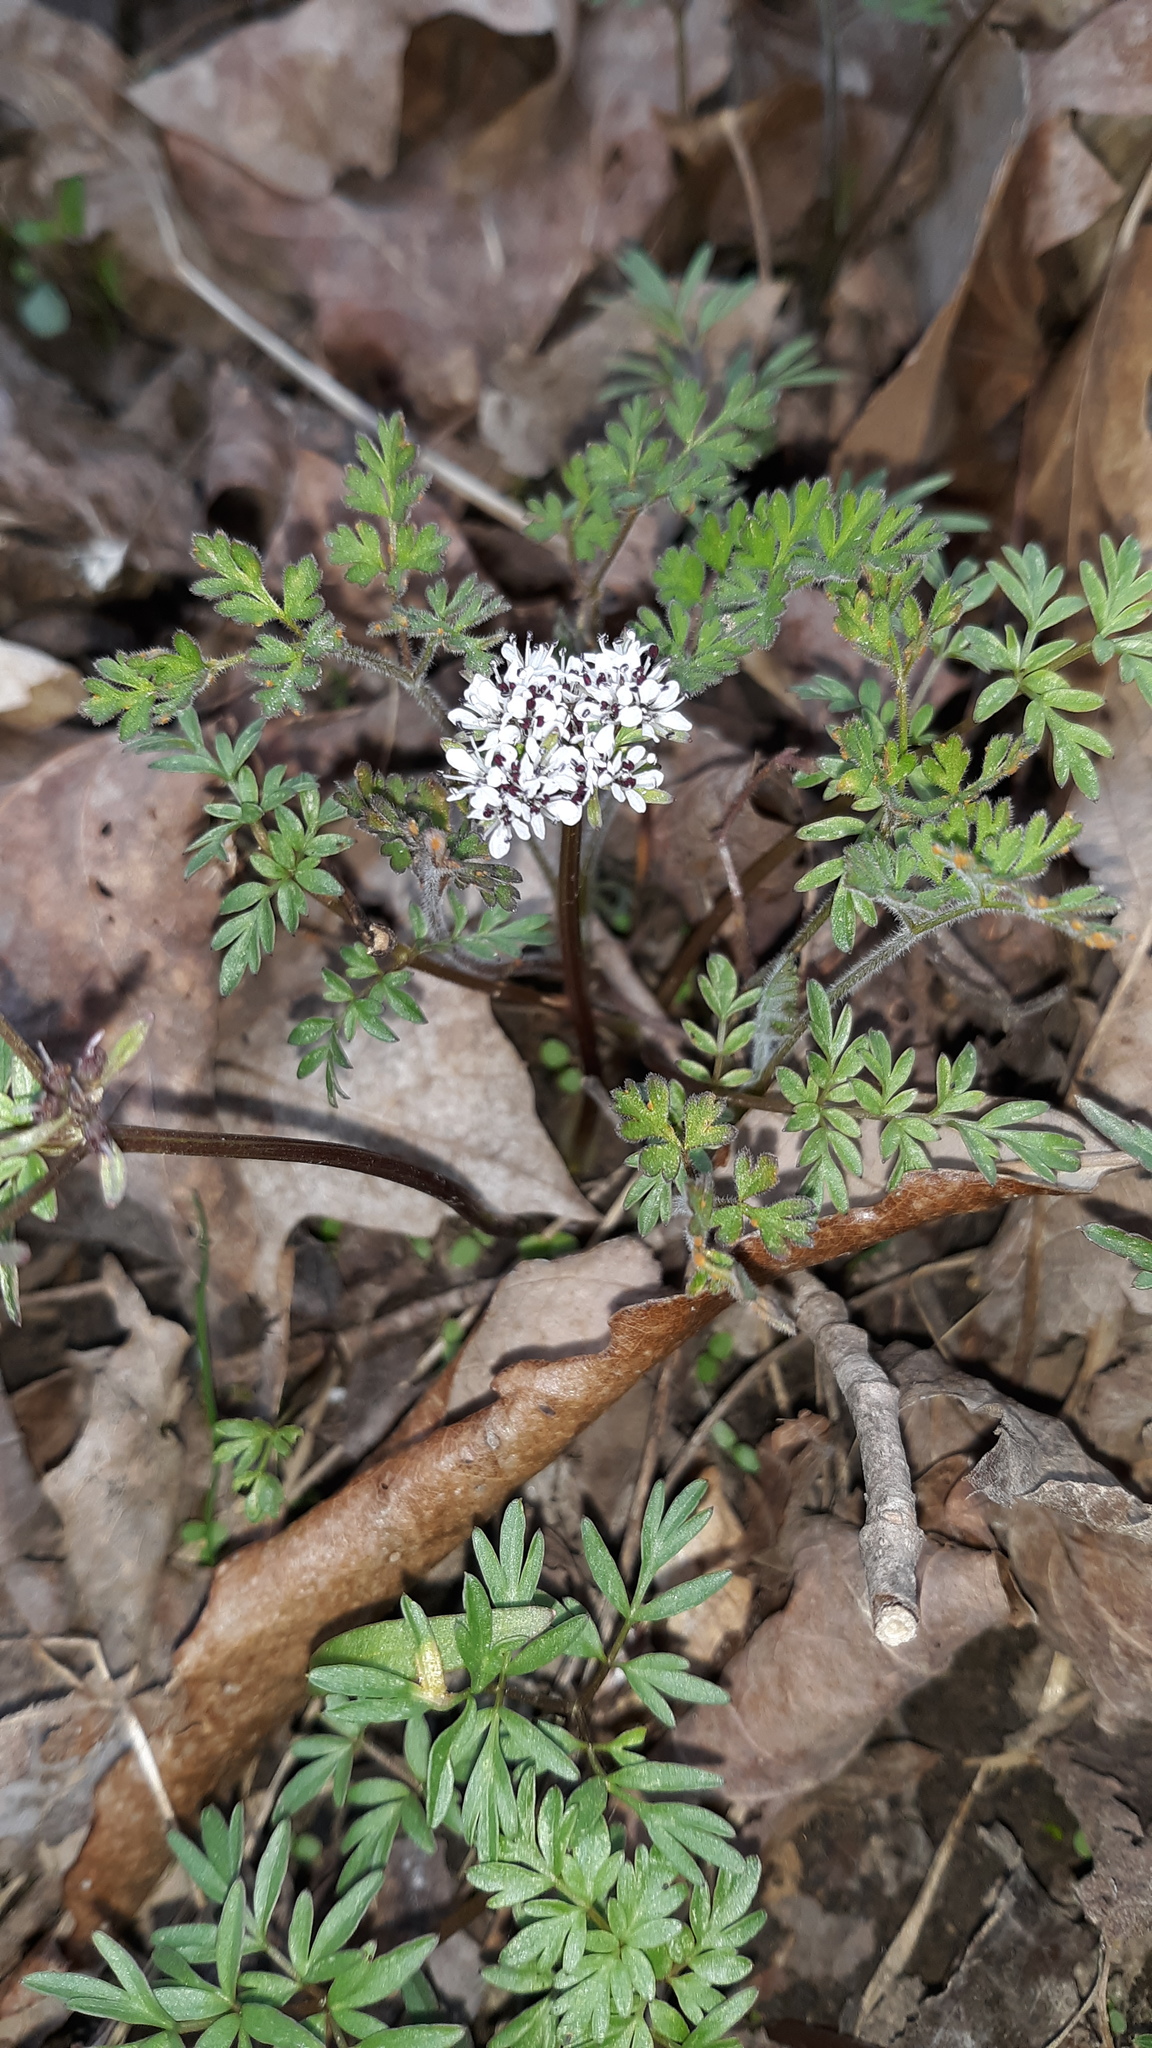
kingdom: Plantae
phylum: Tracheophyta
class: Magnoliopsida
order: Apiales
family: Apiaceae
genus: Erigenia
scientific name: Erigenia bulbosa
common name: Pepper-and-salt
